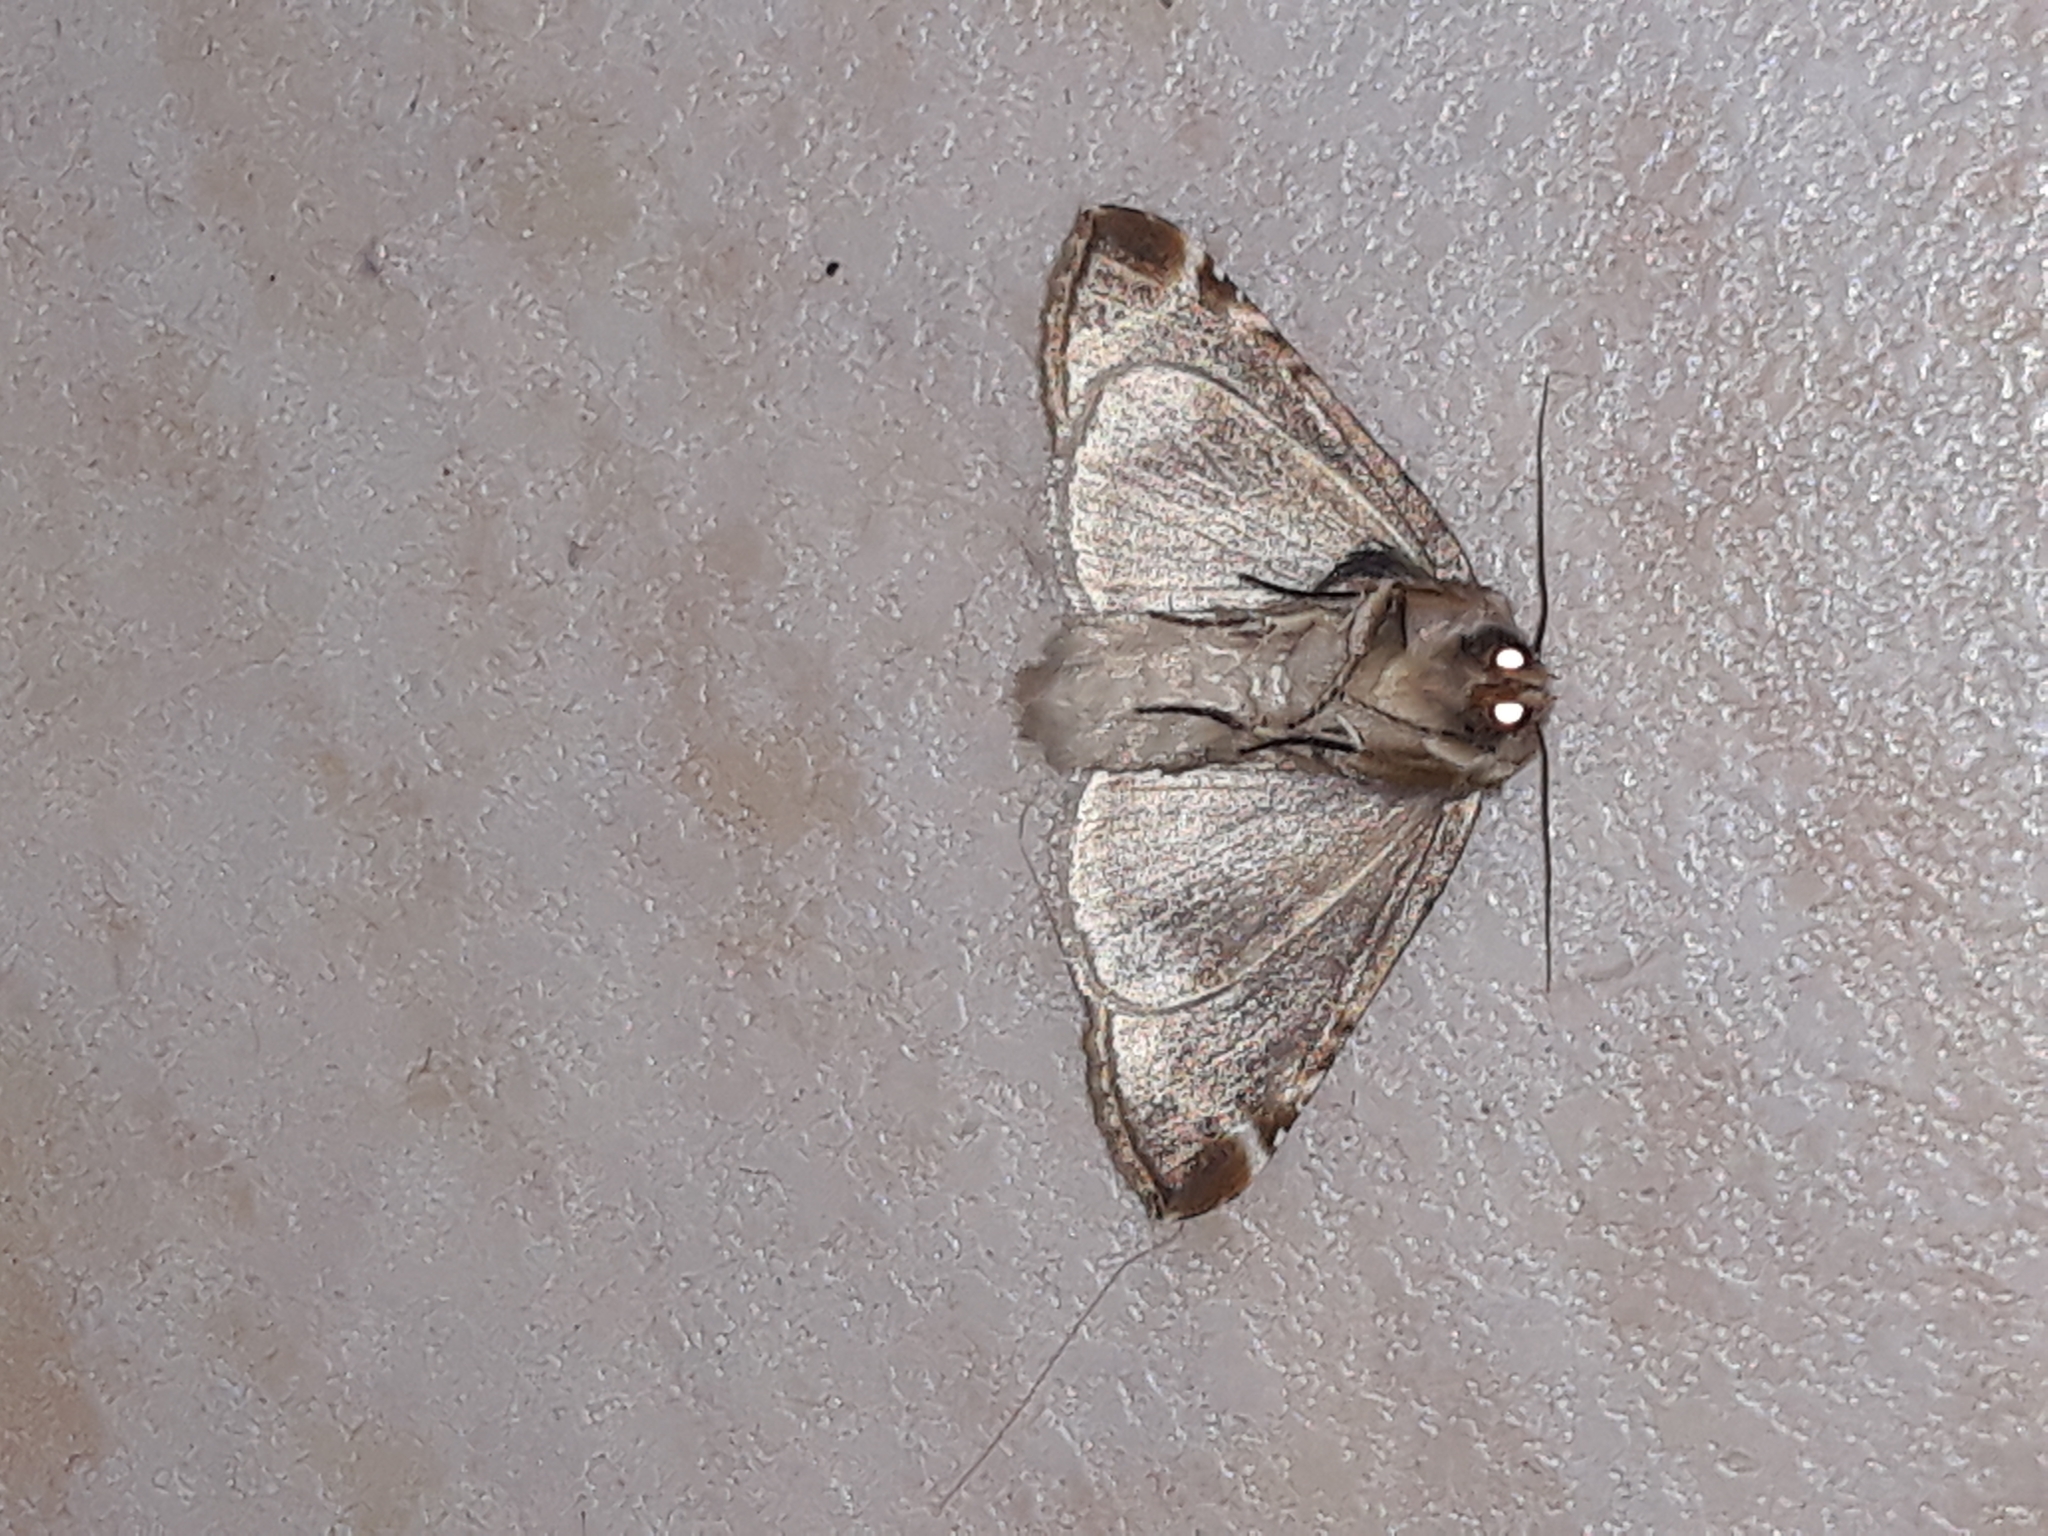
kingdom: Animalia
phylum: Arthropoda
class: Insecta
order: Lepidoptera
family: Drepanidae
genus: Habrosyne
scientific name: Habrosyne pyritoides
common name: Buff arches
